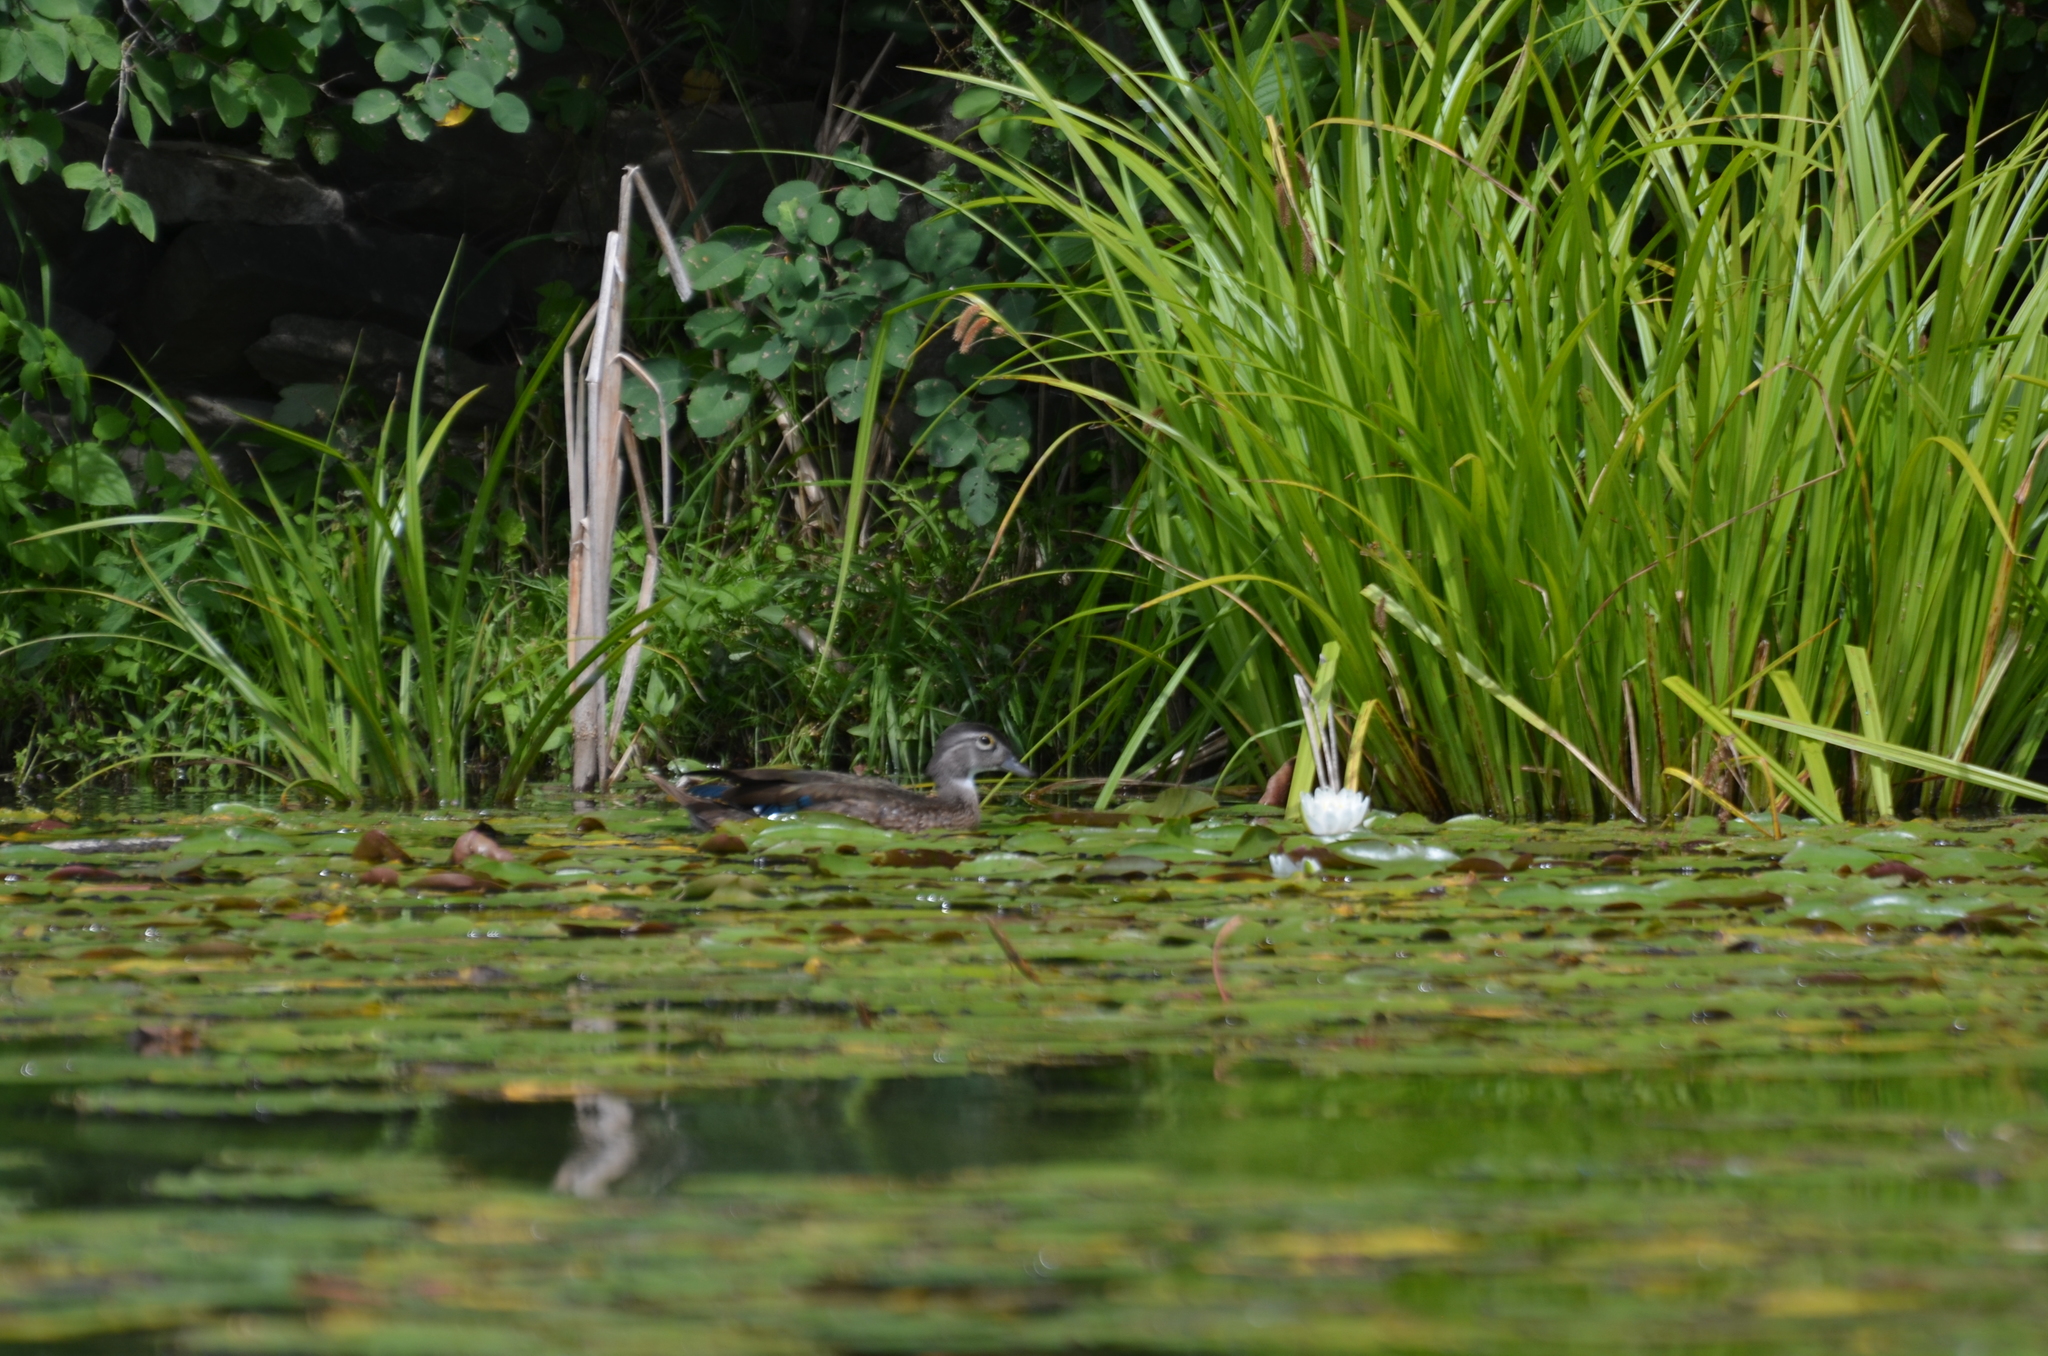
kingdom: Animalia
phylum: Chordata
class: Aves
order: Anseriformes
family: Anatidae
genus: Aix
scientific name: Aix sponsa
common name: Wood duck
